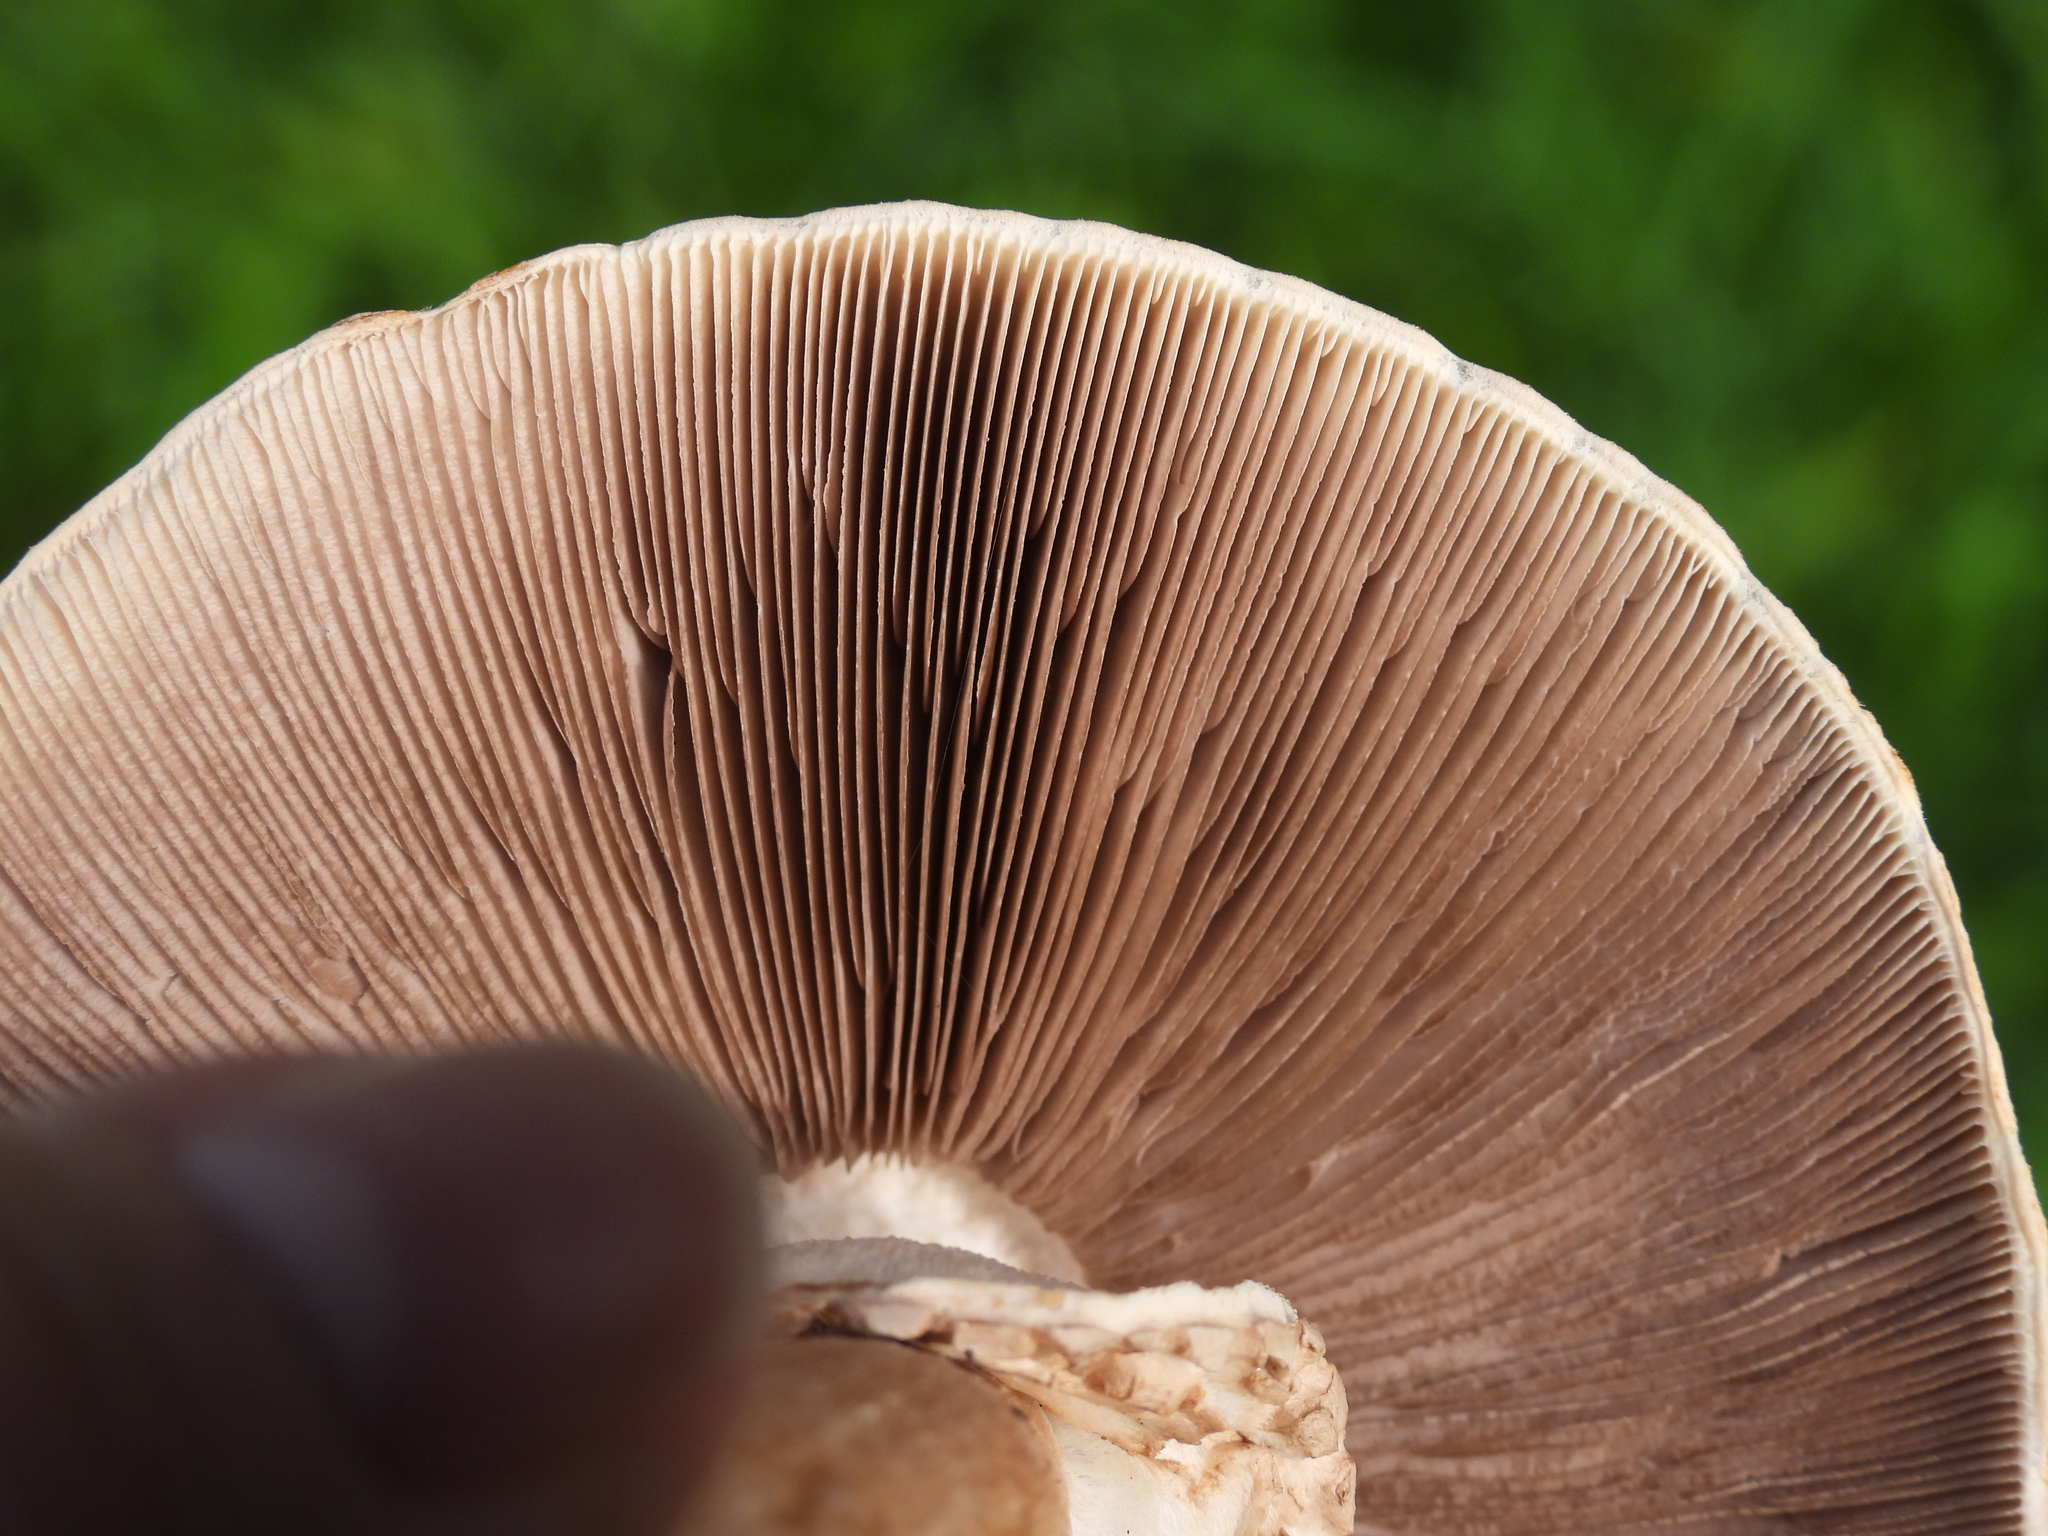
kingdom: Fungi
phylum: Basidiomycota
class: Agaricomycetes
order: Agaricales
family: Agaricaceae
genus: Agaricus
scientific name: Agaricus californicus
